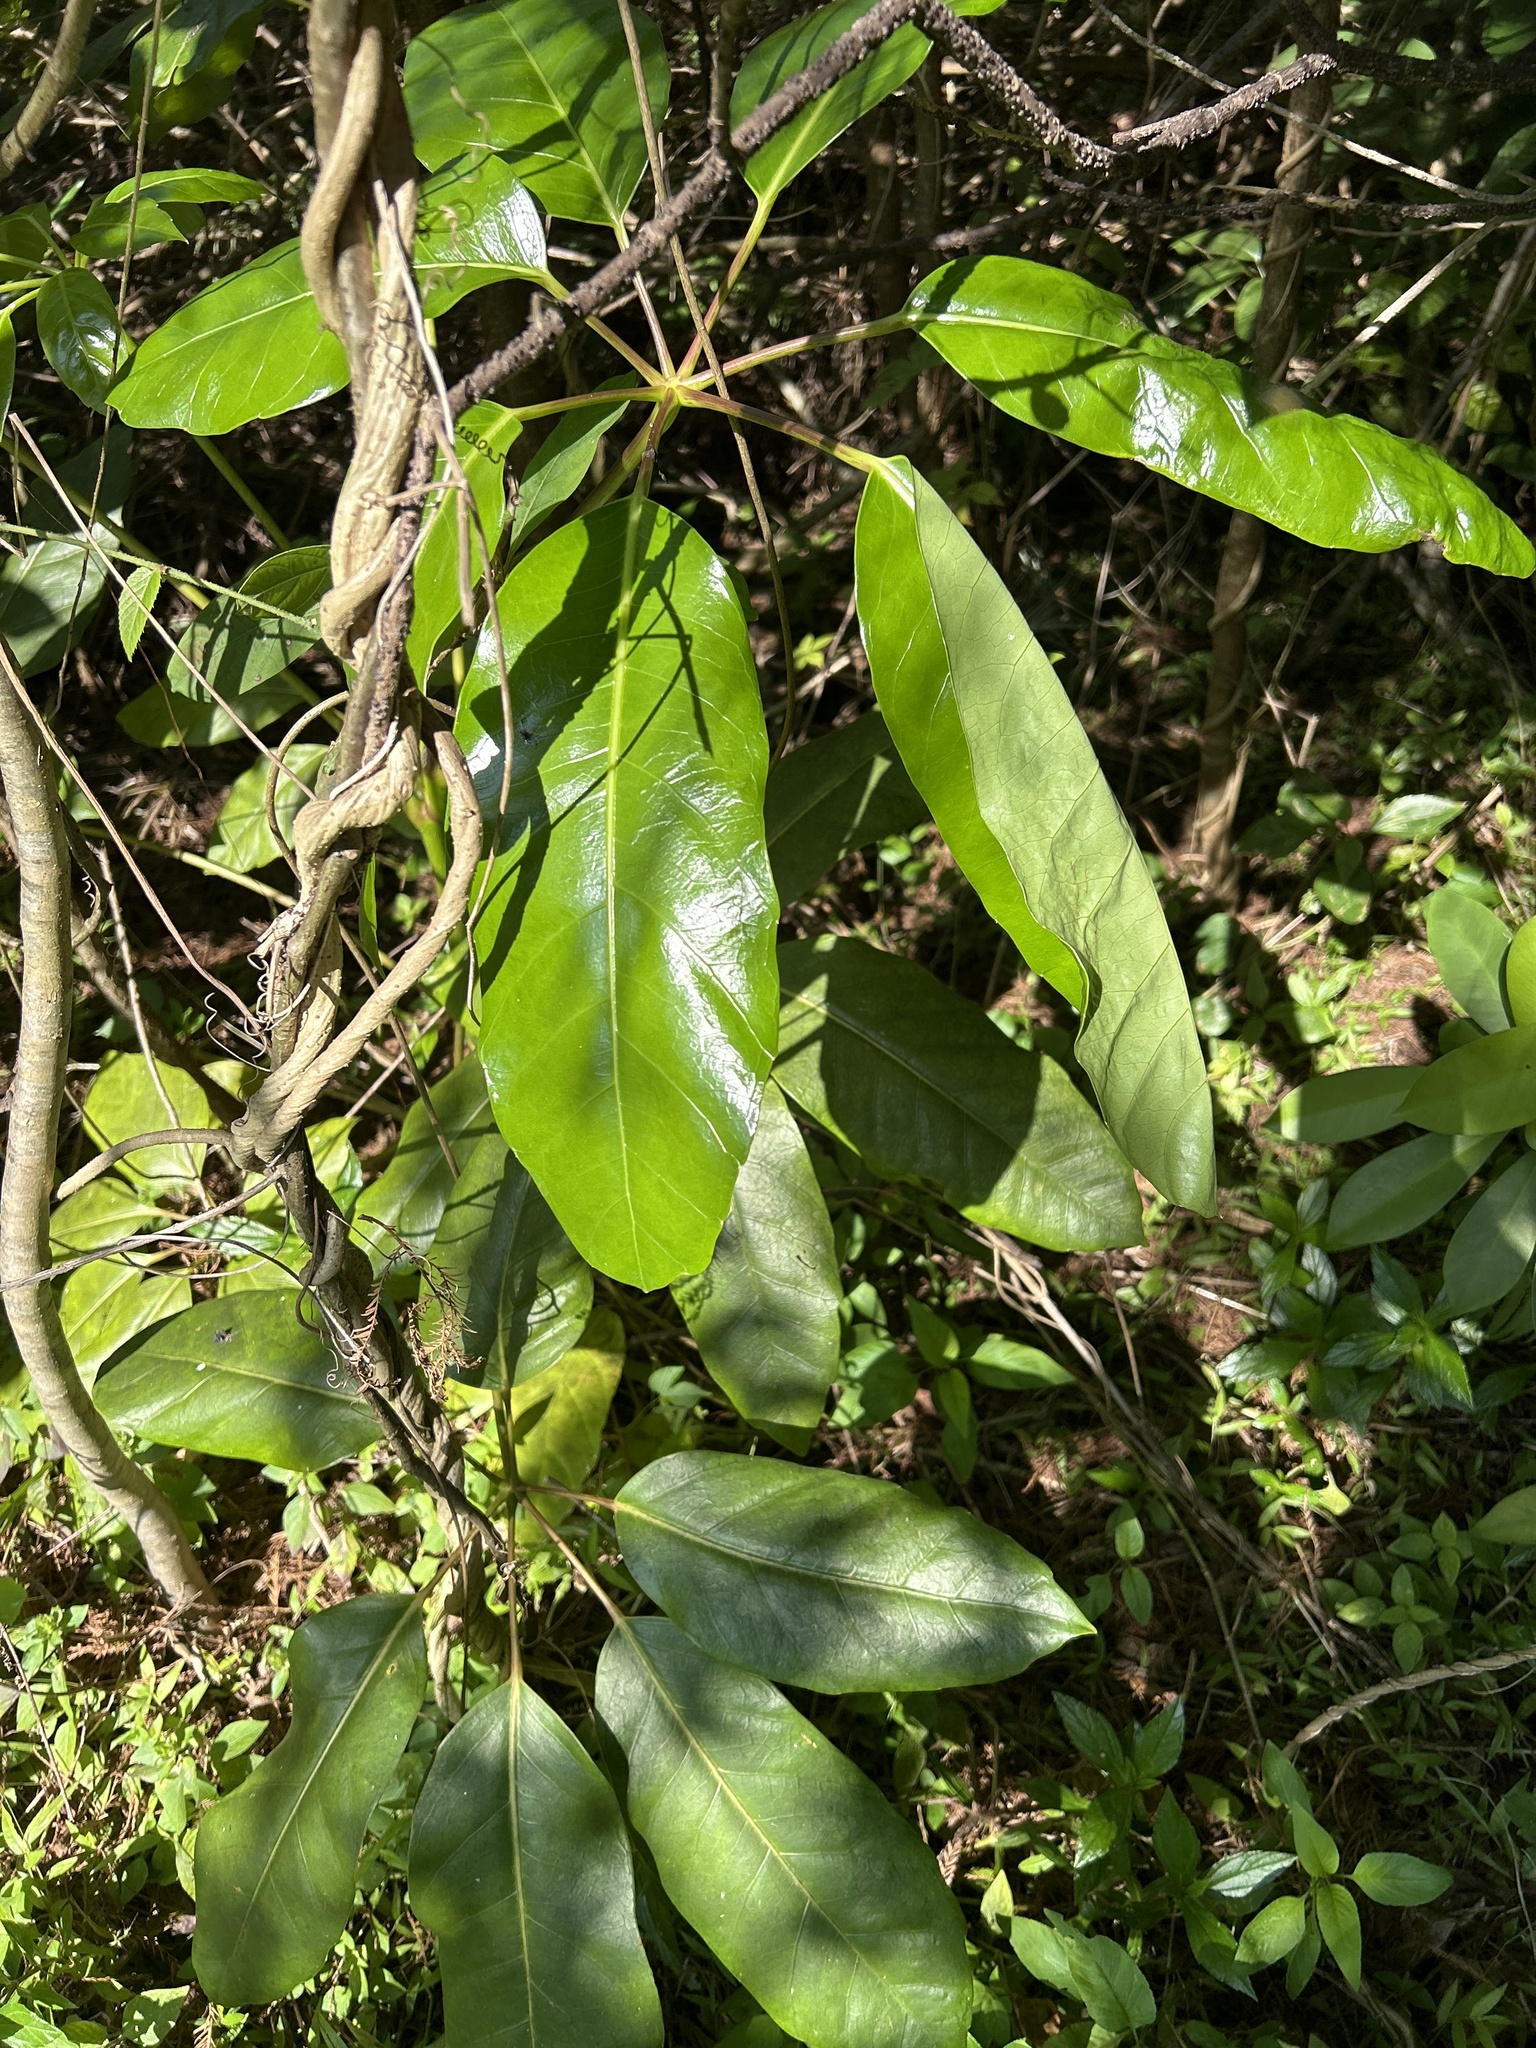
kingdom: Plantae
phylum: Tracheophyta
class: Magnoliopsida
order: Apiales
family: Araliaceae
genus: Heptapleurum
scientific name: Heptapleurum actinophyllum
